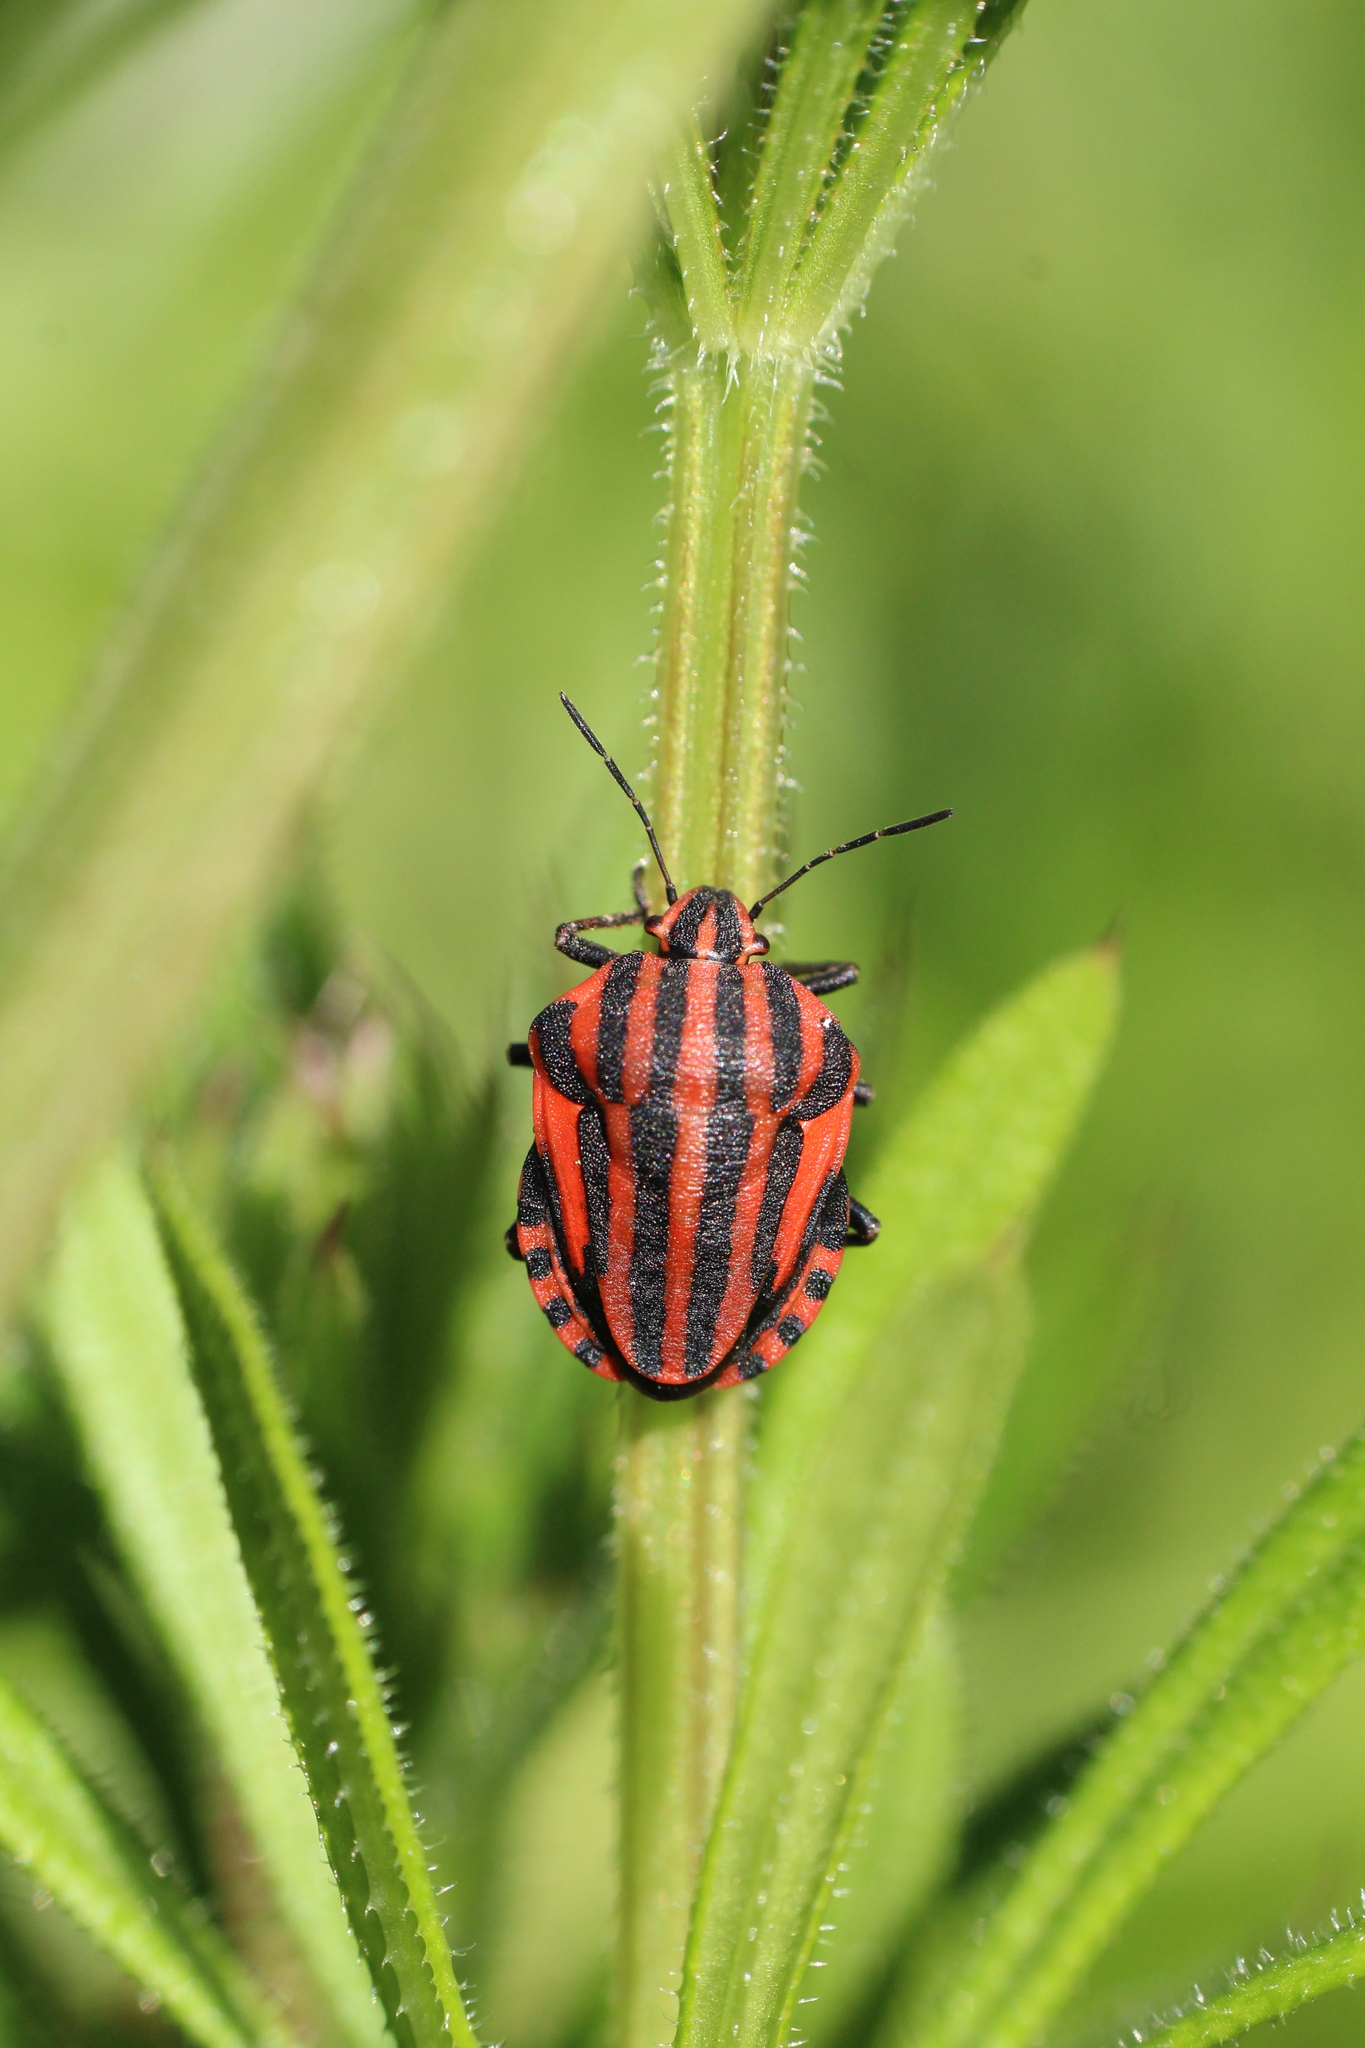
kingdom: Animalia
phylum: Arthropoda
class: Insecta
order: Hemiptera
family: Pentatomidae
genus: Graphosoma
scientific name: Graphosoma italicum
